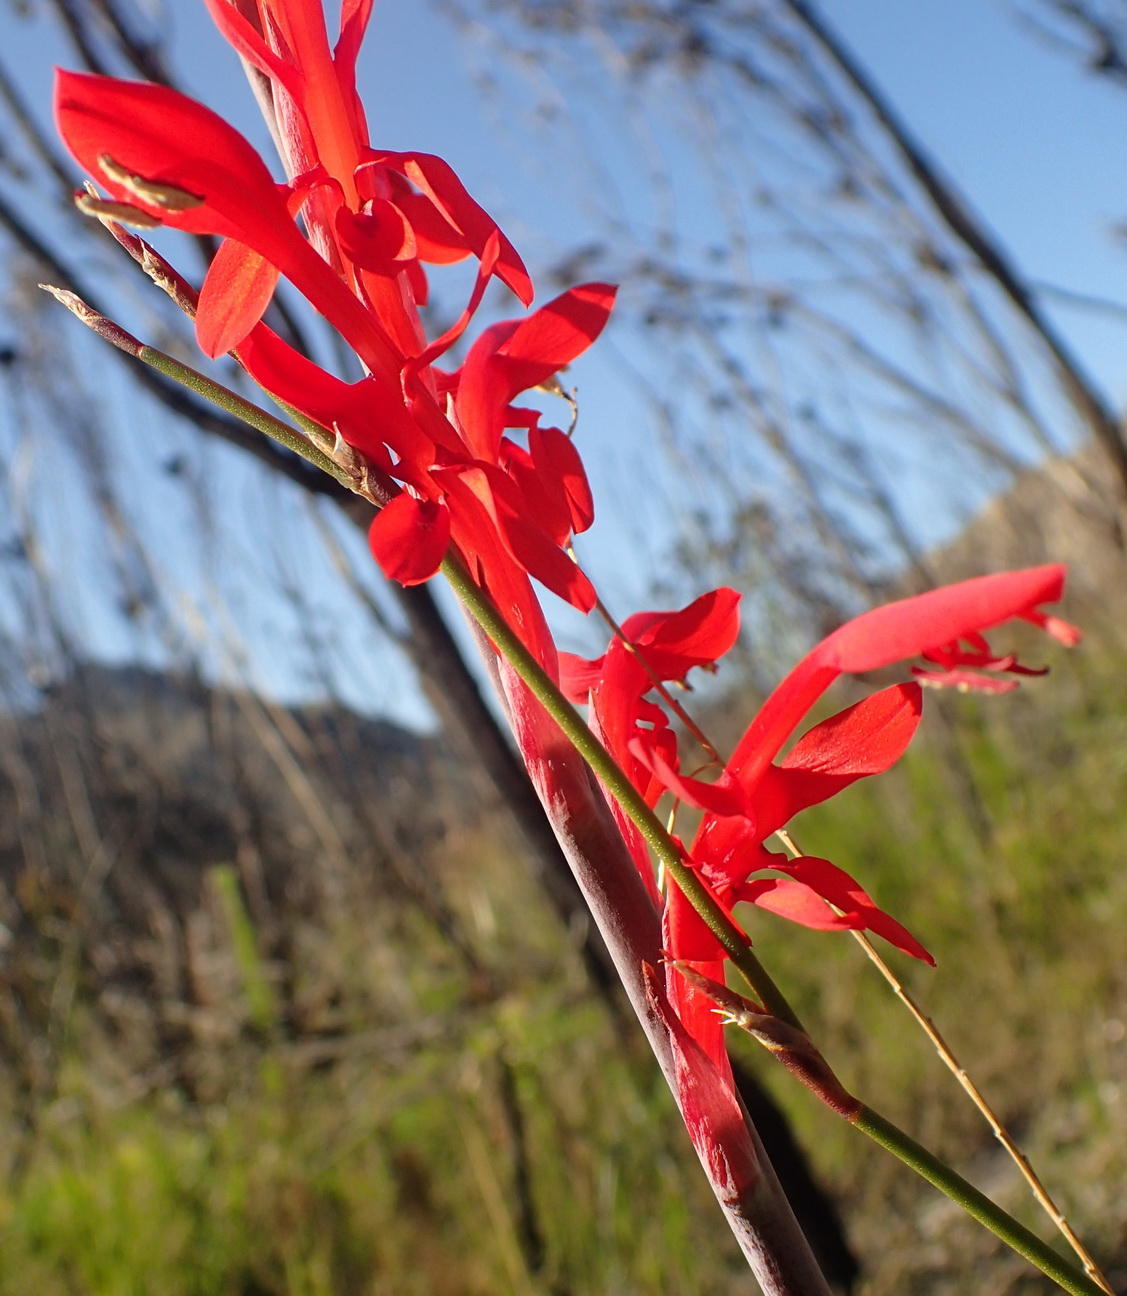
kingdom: Plantae
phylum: Tracheophyta
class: Liliopsida
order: Asparagales
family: Iridaceae
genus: Tritoniopsis
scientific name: Tritoniopsis caffra
